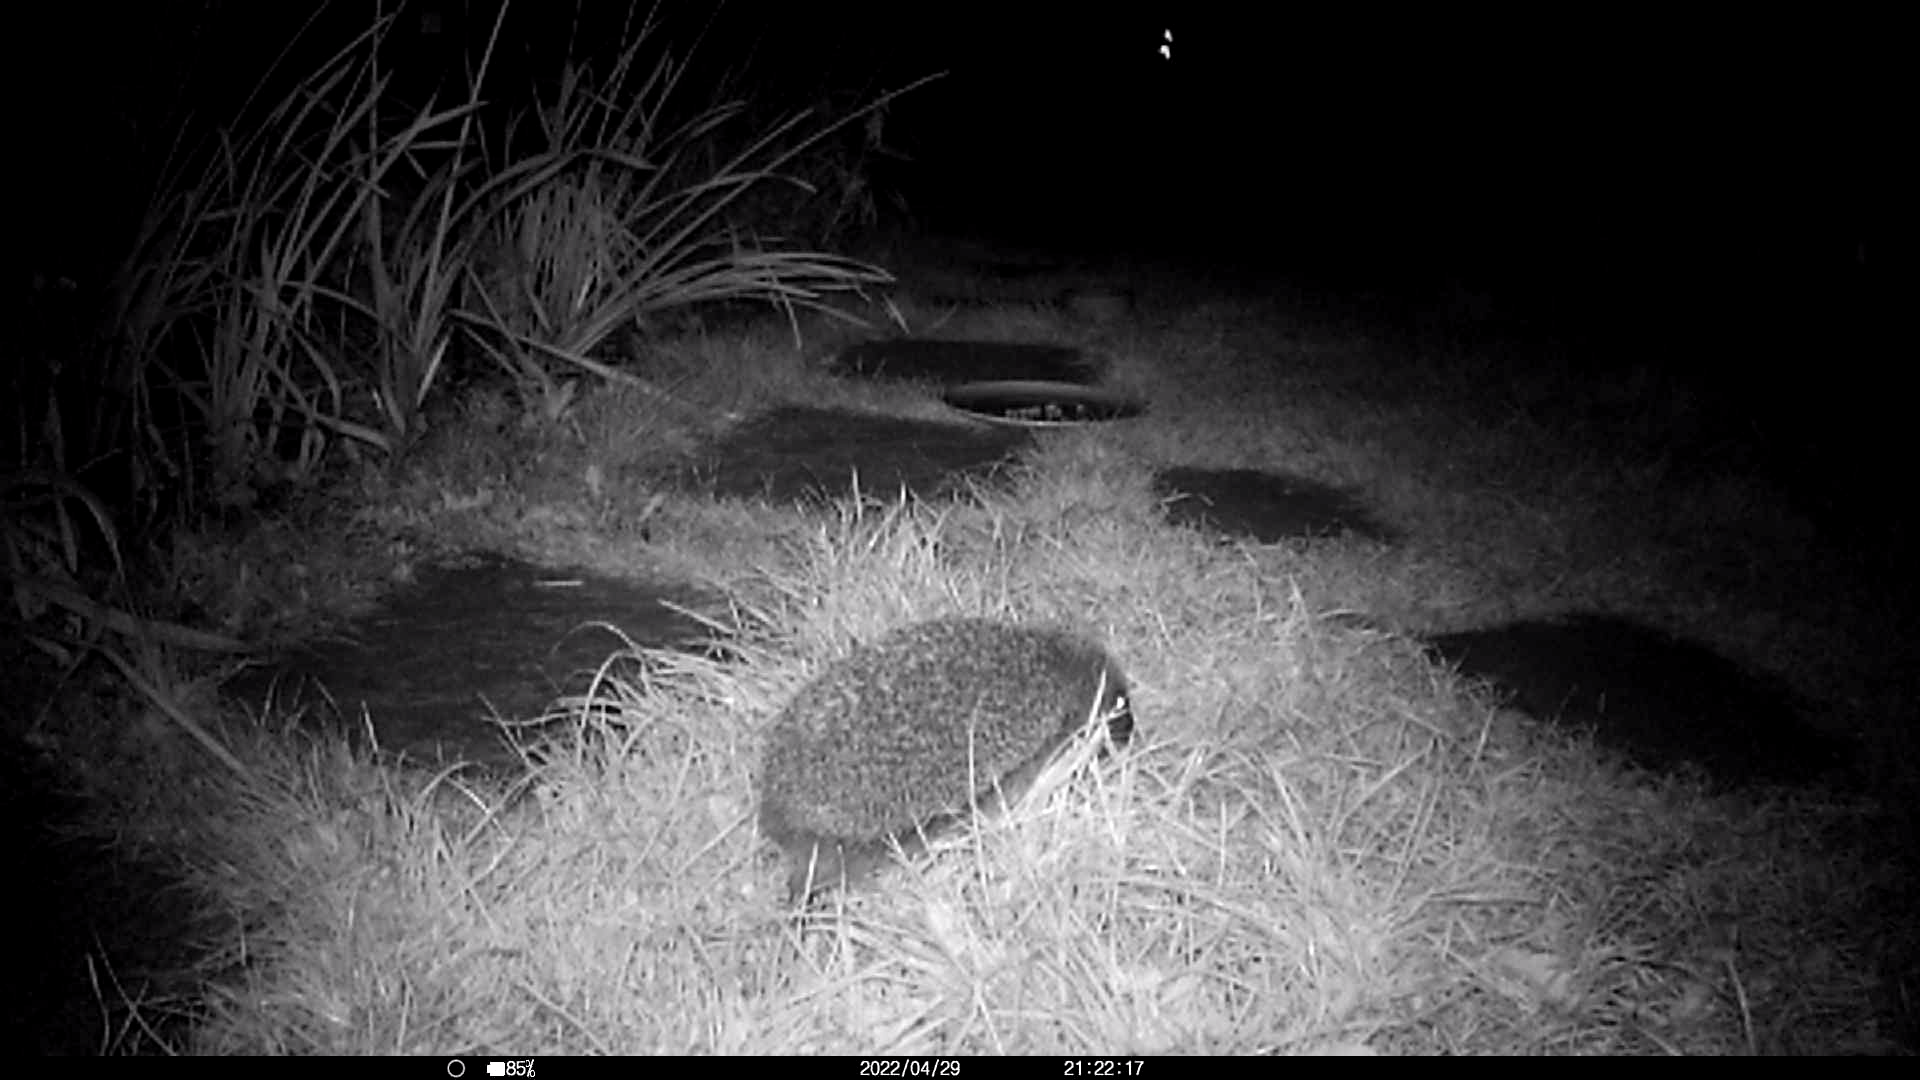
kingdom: Animalia
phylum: Chordata
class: Mammalia
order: Erinaceomorpha
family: Erinaceidae
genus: Erinaceus
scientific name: Erinaceus europaeus
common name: West european hedgehog
